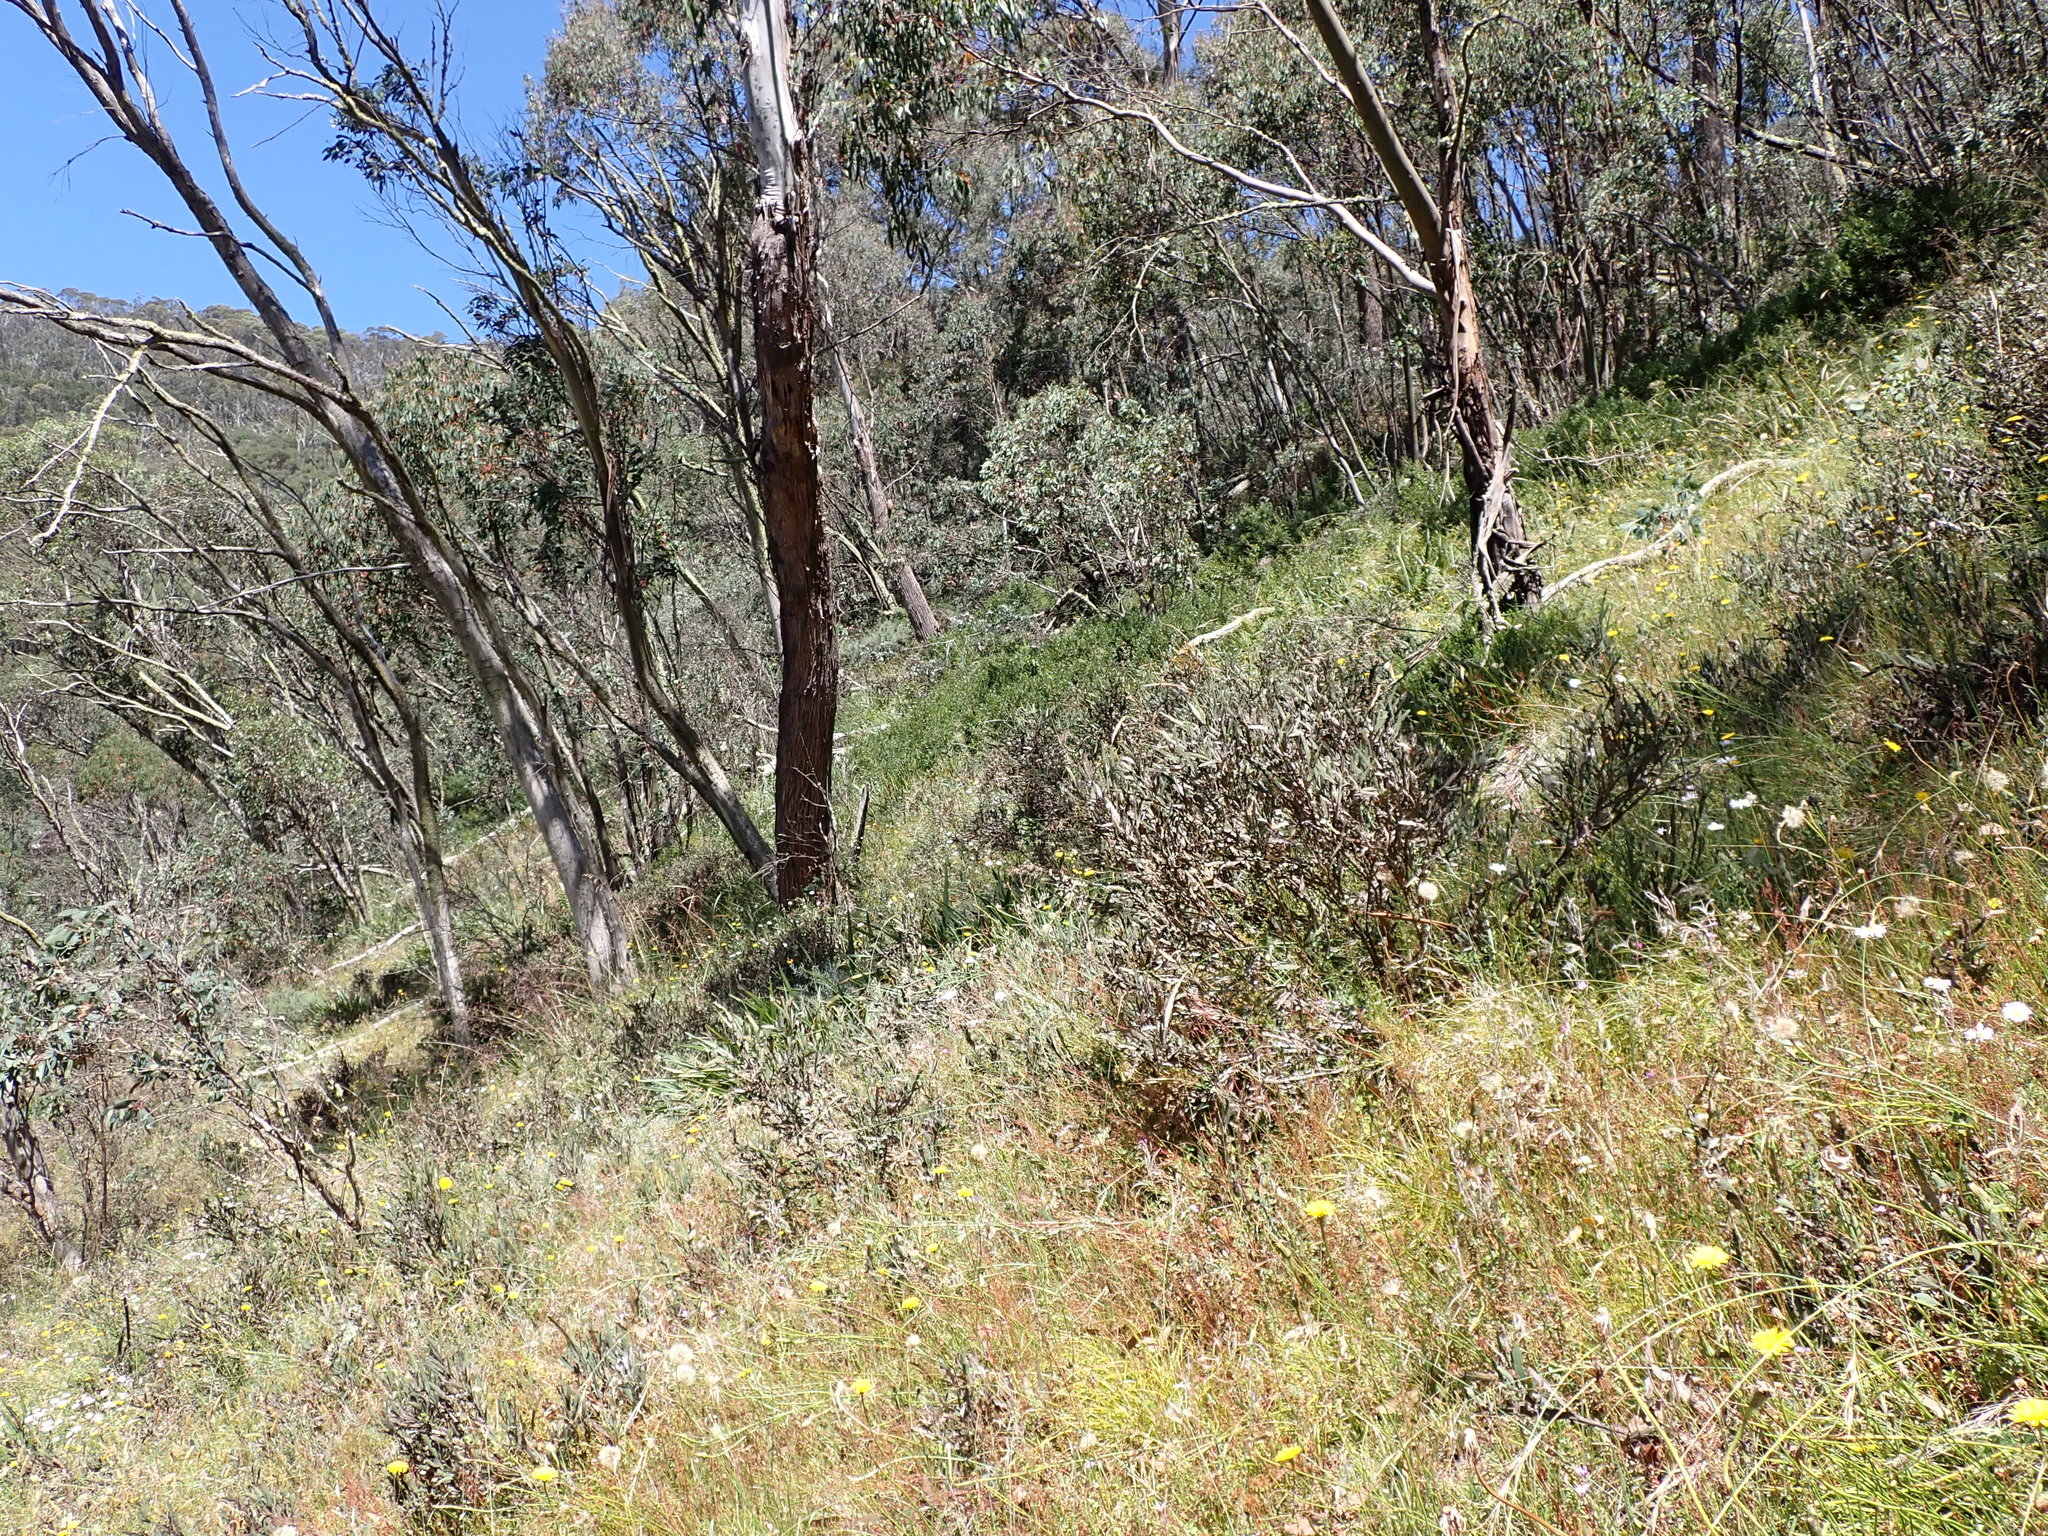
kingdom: Plantae
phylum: Tracheophyta
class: Magnoliopsida
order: Fabales
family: Fabaceae
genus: Bossiaea
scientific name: Bossiaea bracteosa
